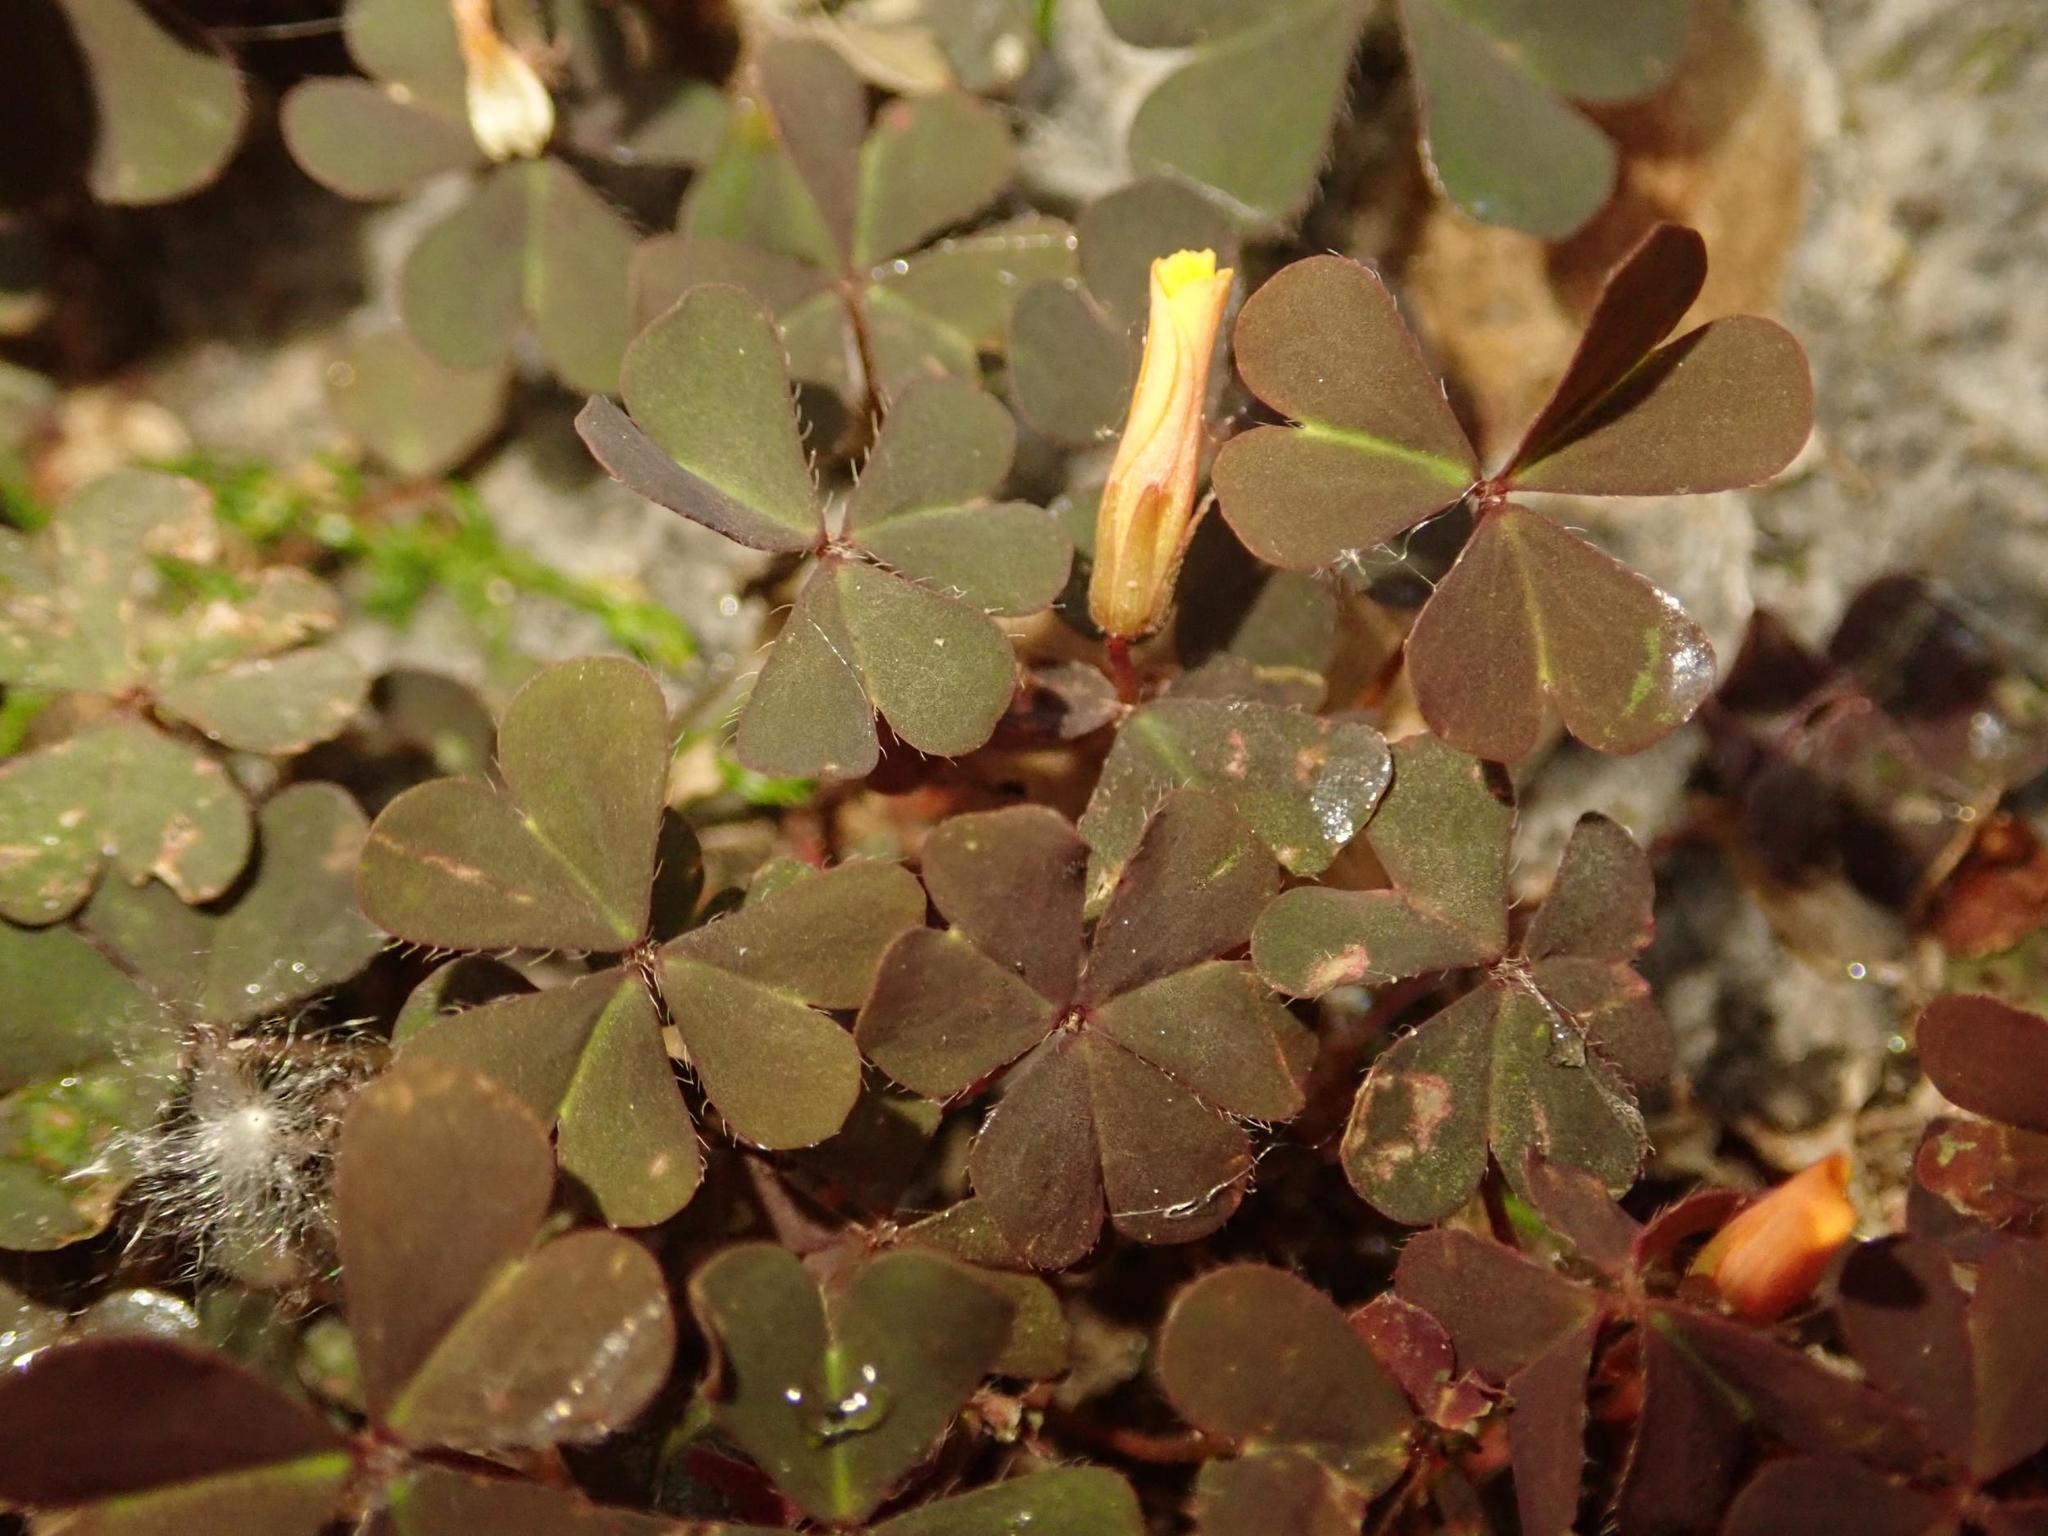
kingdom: Plantae
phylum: Tracheophyta
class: Magnoliopsida
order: Oxalidales
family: Oxalidaceae
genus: Oxalis
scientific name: Oxalis corniculata
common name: Procumbent yellow-sorrel
